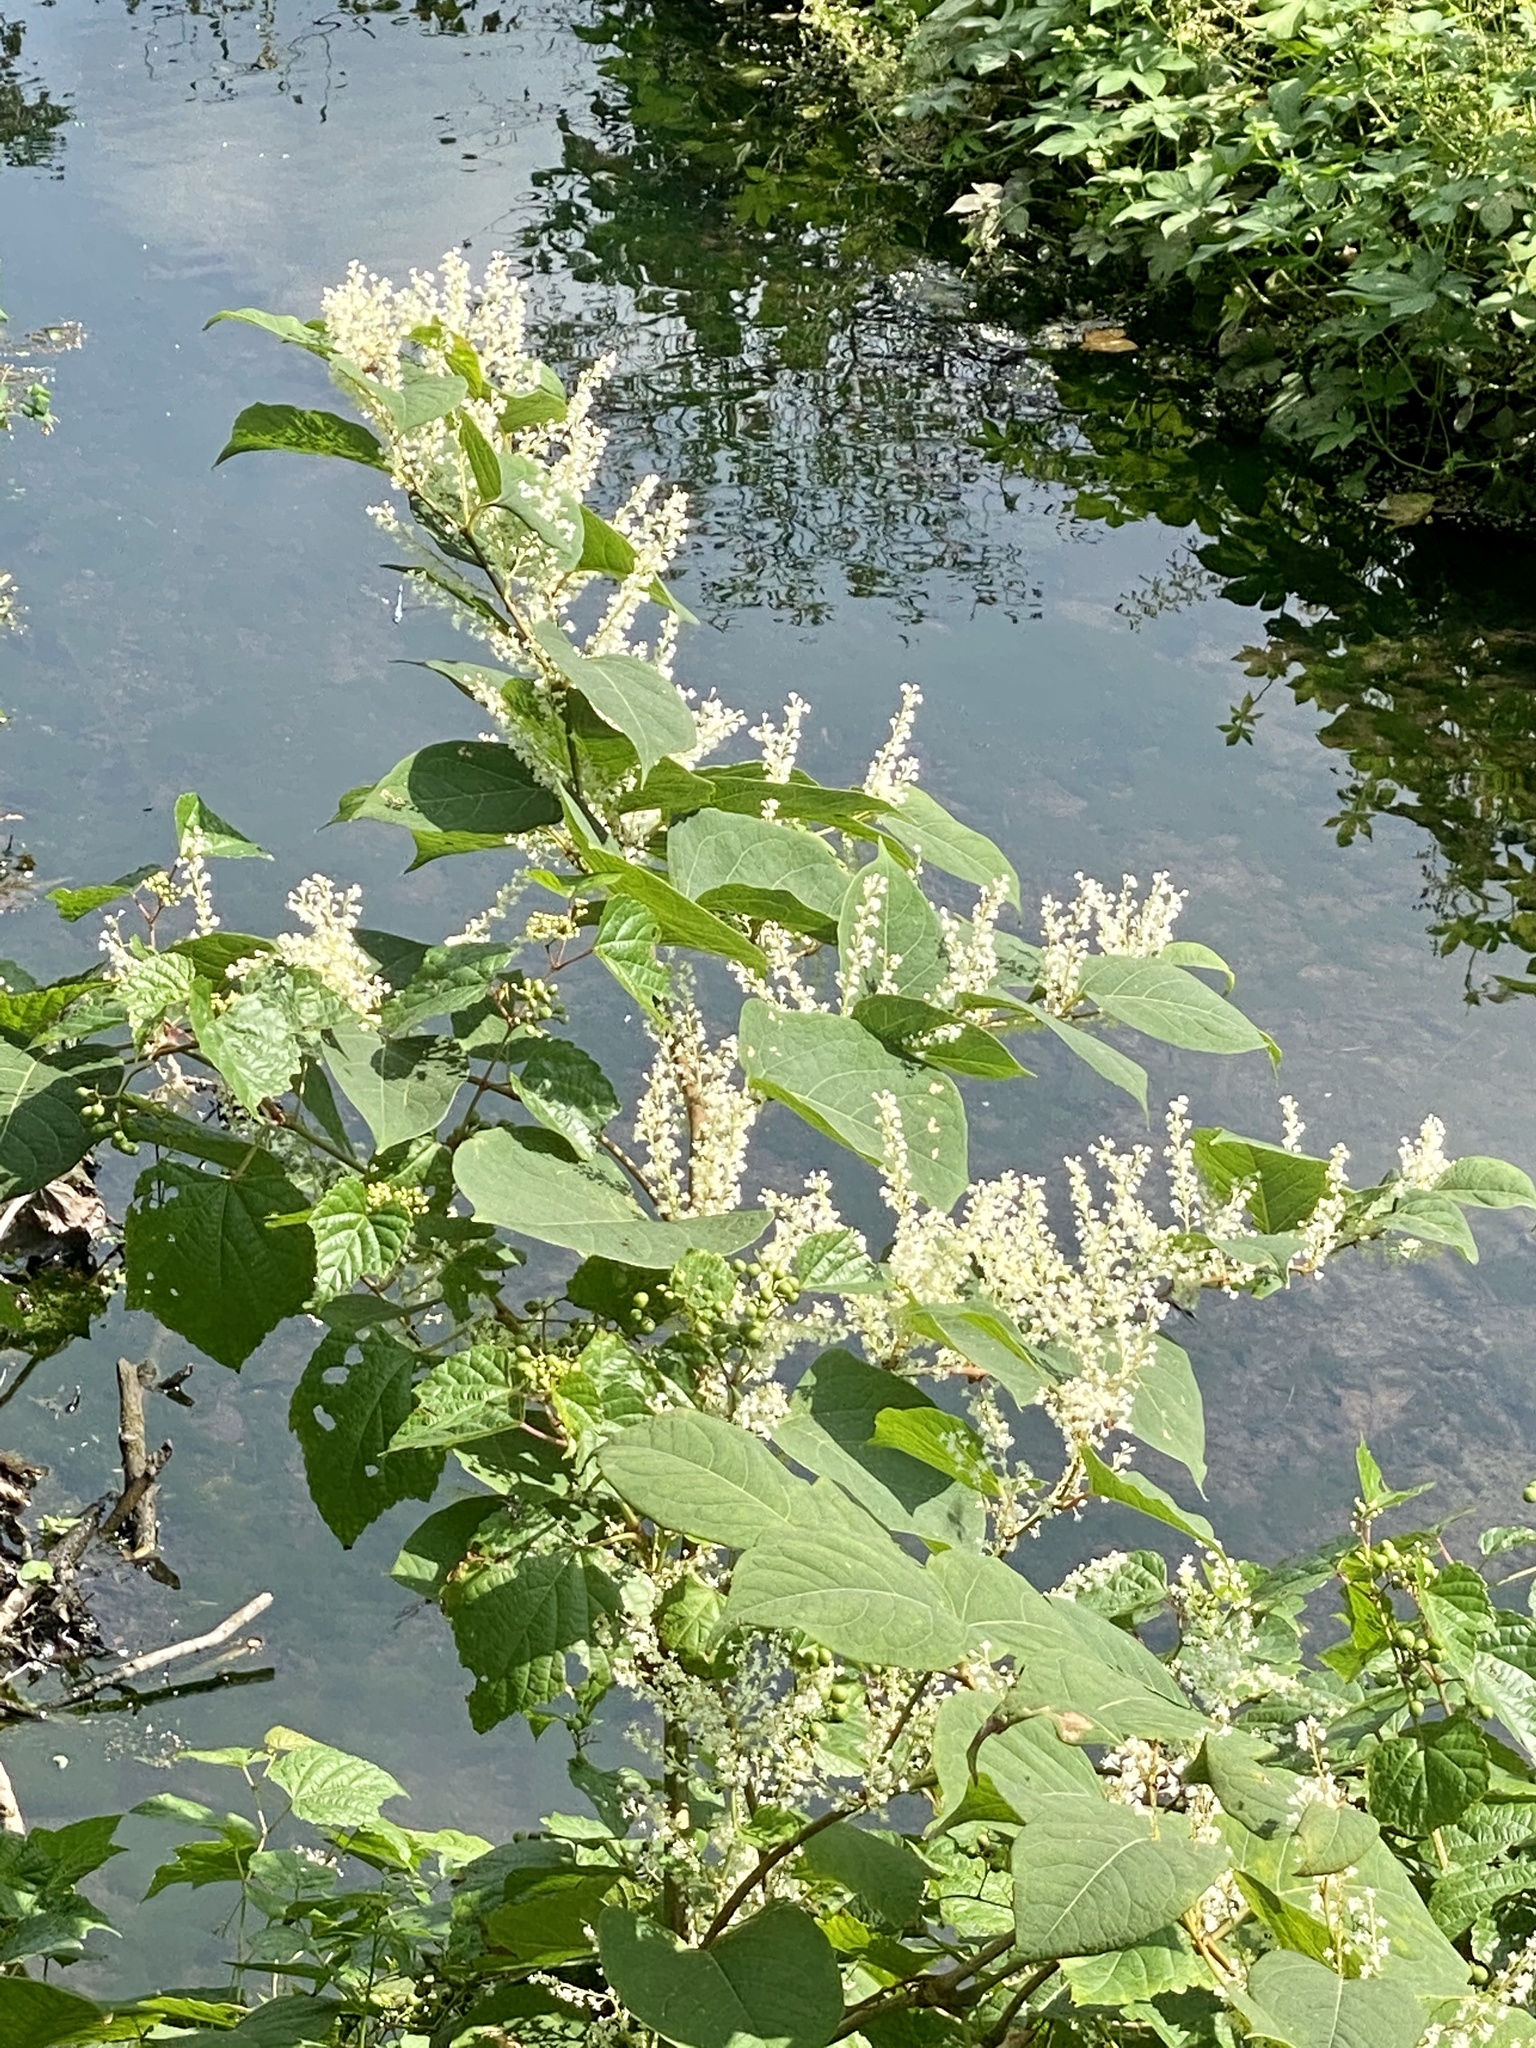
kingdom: Plantae
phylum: Tracheophyta
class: Magnoliopsida
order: Caryophyllales
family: Polygonaceae
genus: Reynoutria
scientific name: Reynoutria japonica
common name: Japanese knotweed
